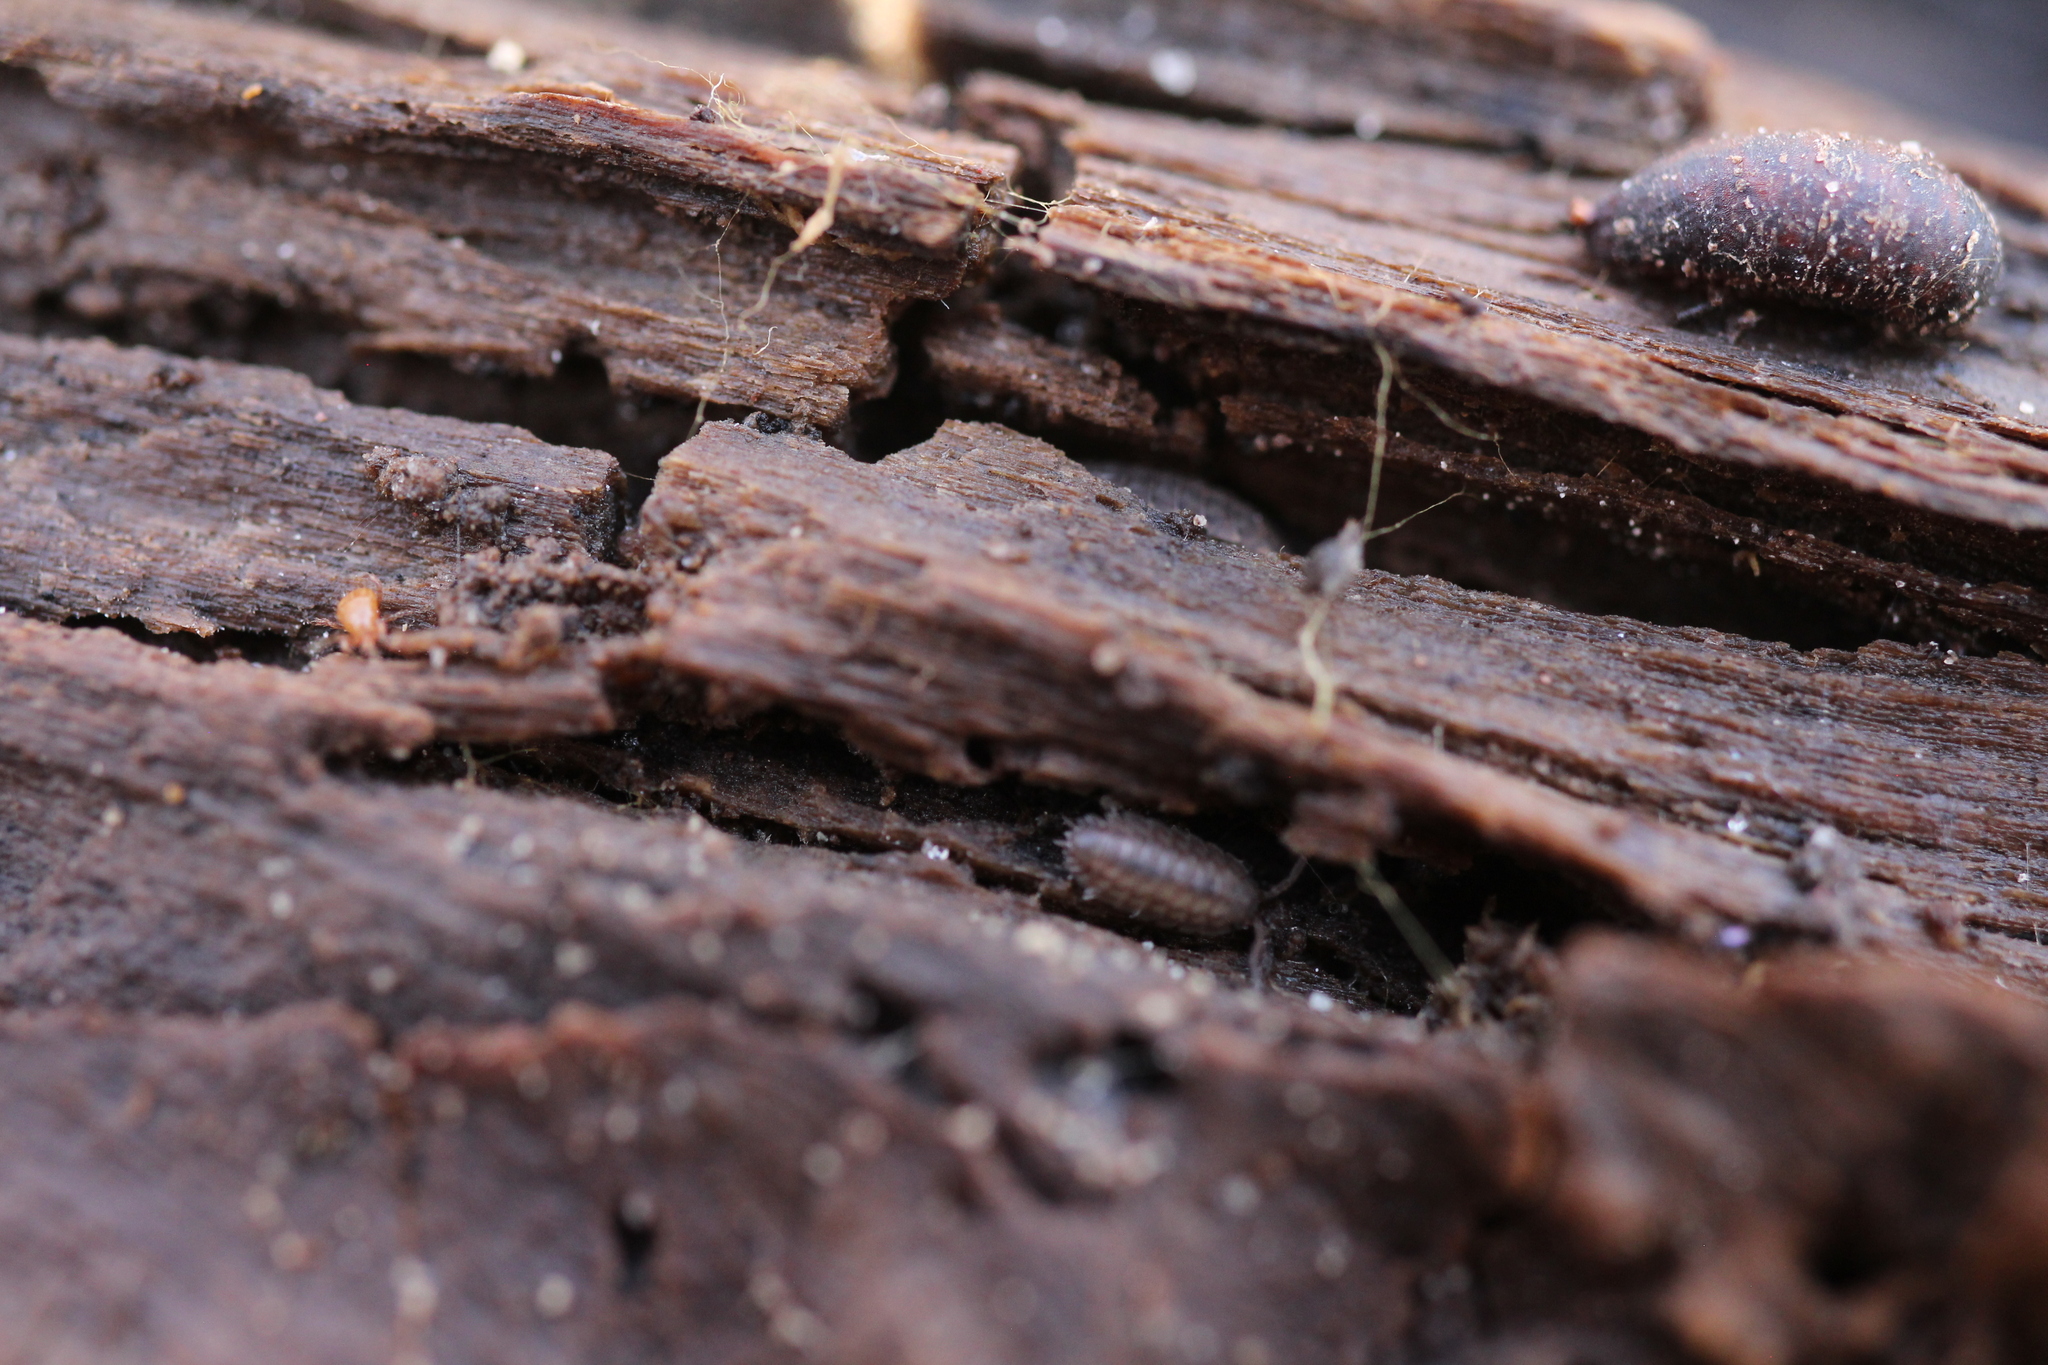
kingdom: Animalia
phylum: Arthropoda
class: Malacostraca
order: Isopoda
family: Trachelipodidae
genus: Trachelipus
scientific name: Trachelipus rathkii
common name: Isopod
